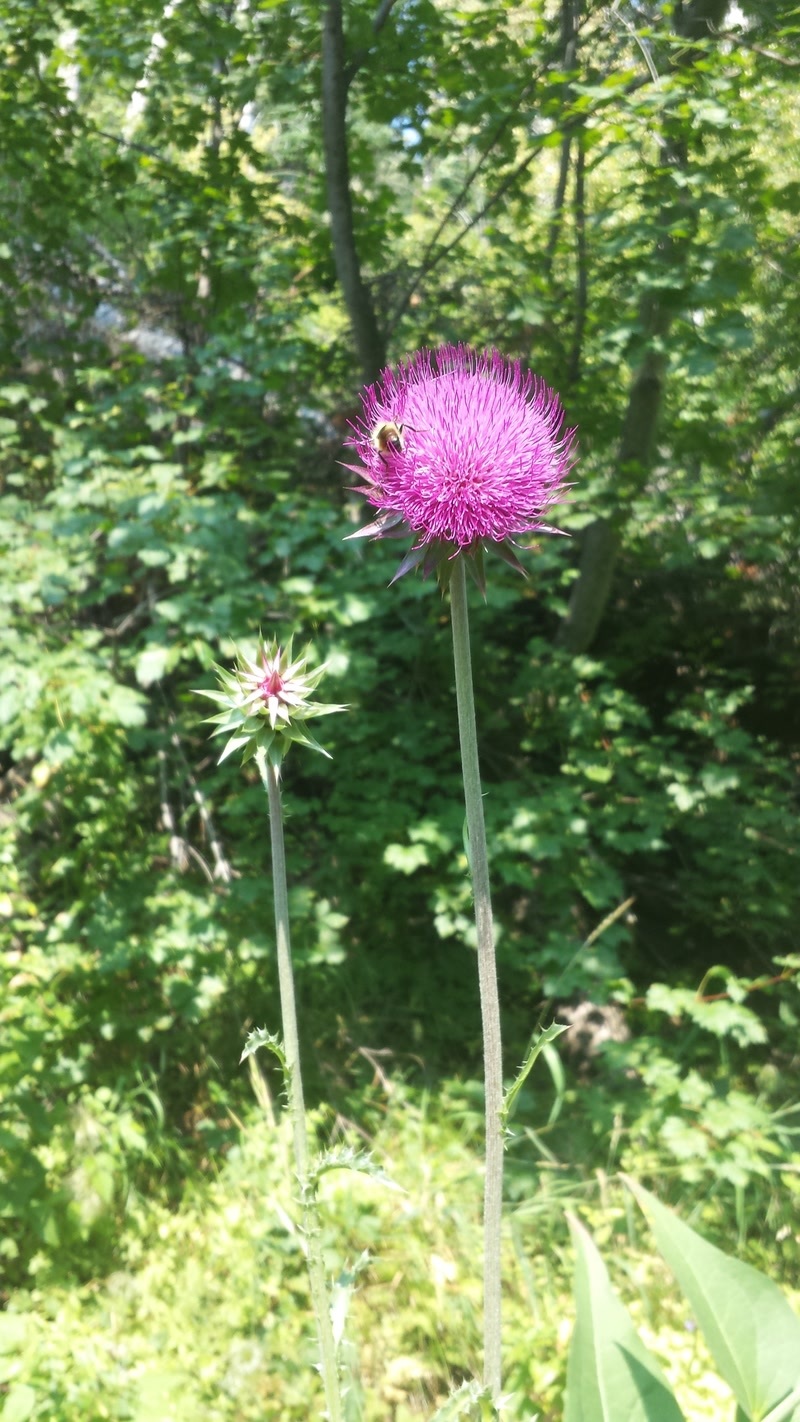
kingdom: Plantae
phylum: Tracheophyta
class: Magnoliopsida
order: Asterales
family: Asteraceae
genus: Carduus
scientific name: Carduus nutans
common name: Musk thistle
